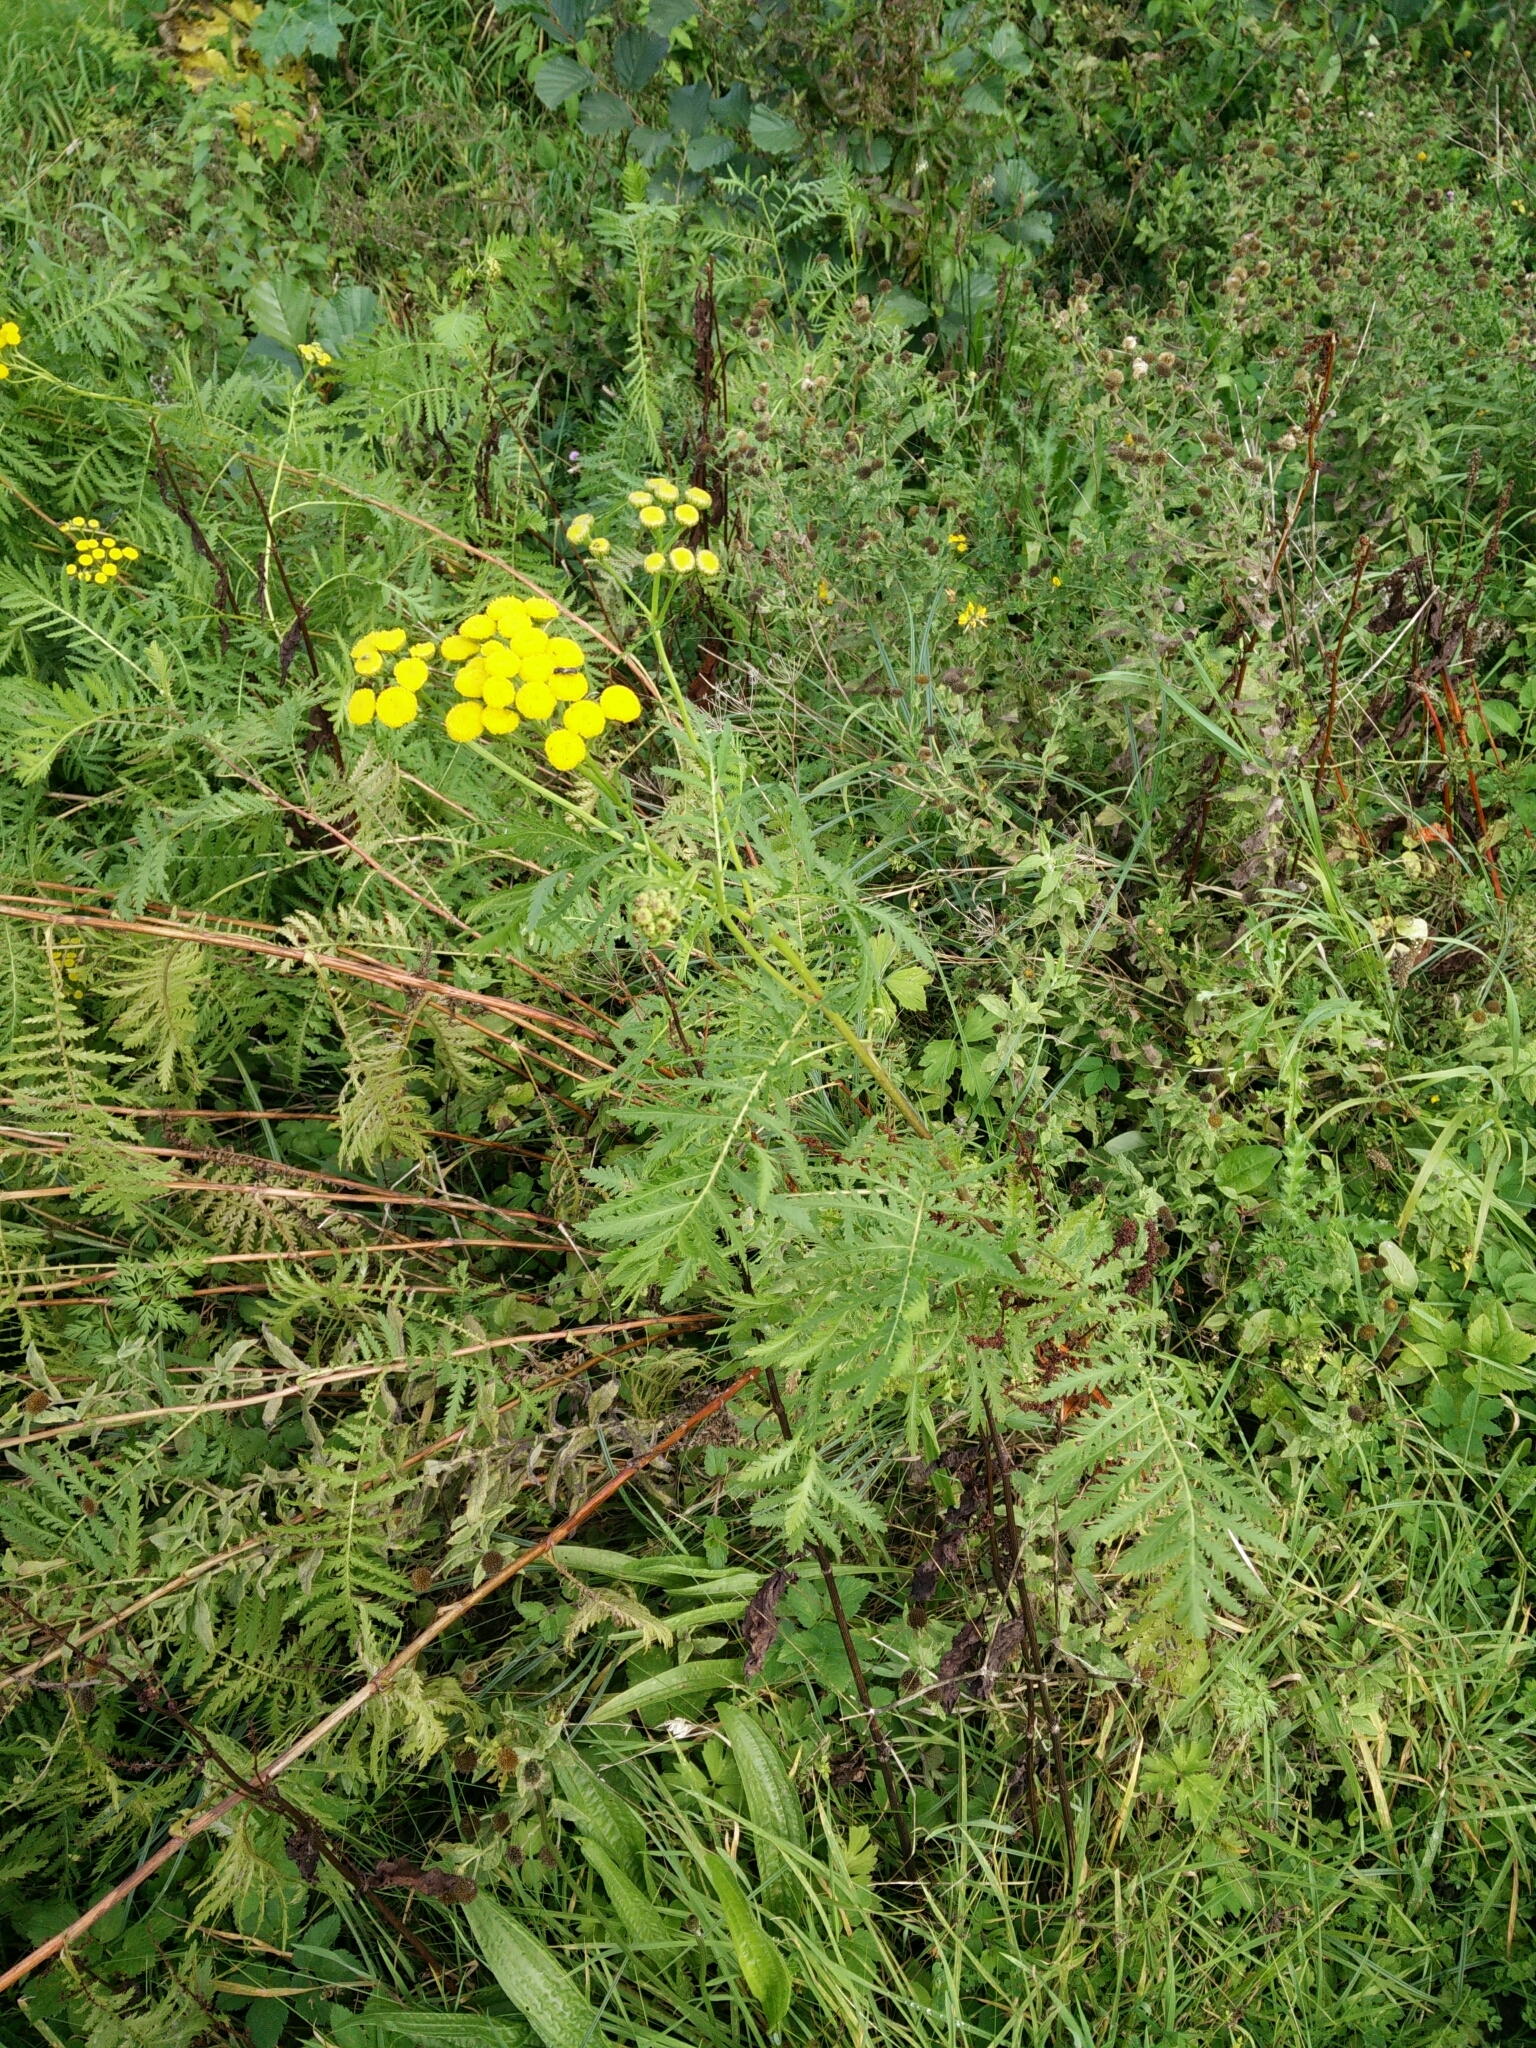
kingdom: Plantae
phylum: Tracheophyta
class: Magnoliopsida
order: Asterales
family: Asteraceae
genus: Tanacetum
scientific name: Tanacetum vulgare
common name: Common tansy
